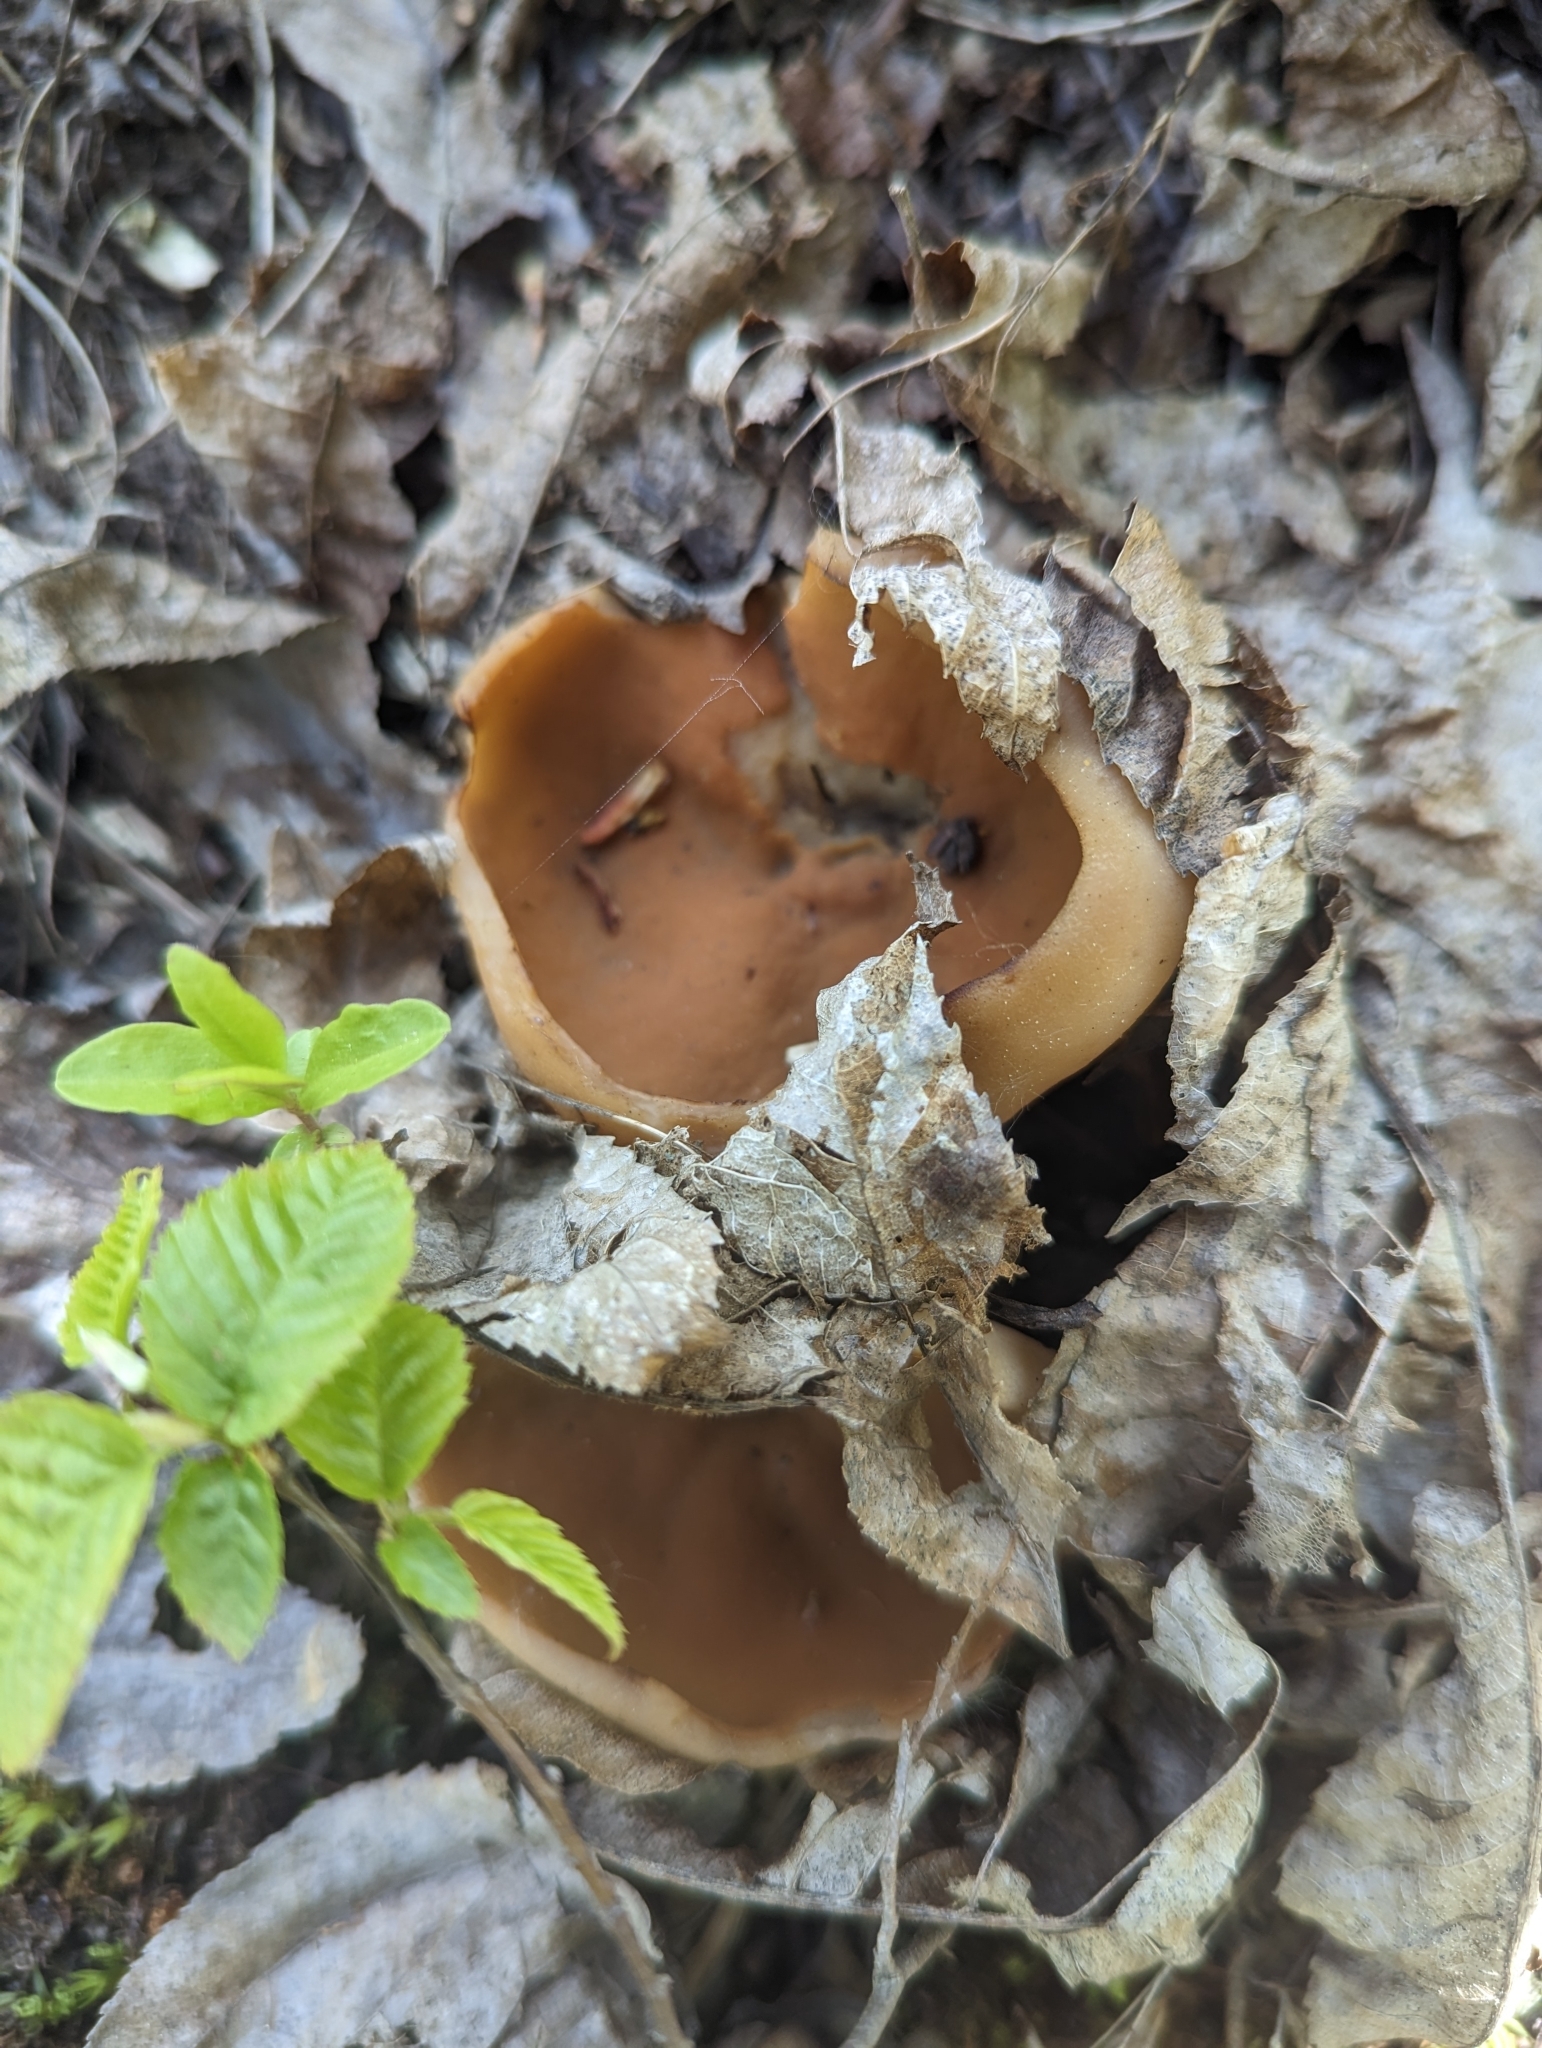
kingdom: Fungi
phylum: Ascomycota
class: Pezizomycetes
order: Pezizales
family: Discinaceae
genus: Gyromitra
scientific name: Gyromitra leucoxantha
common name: Fishtail cup
